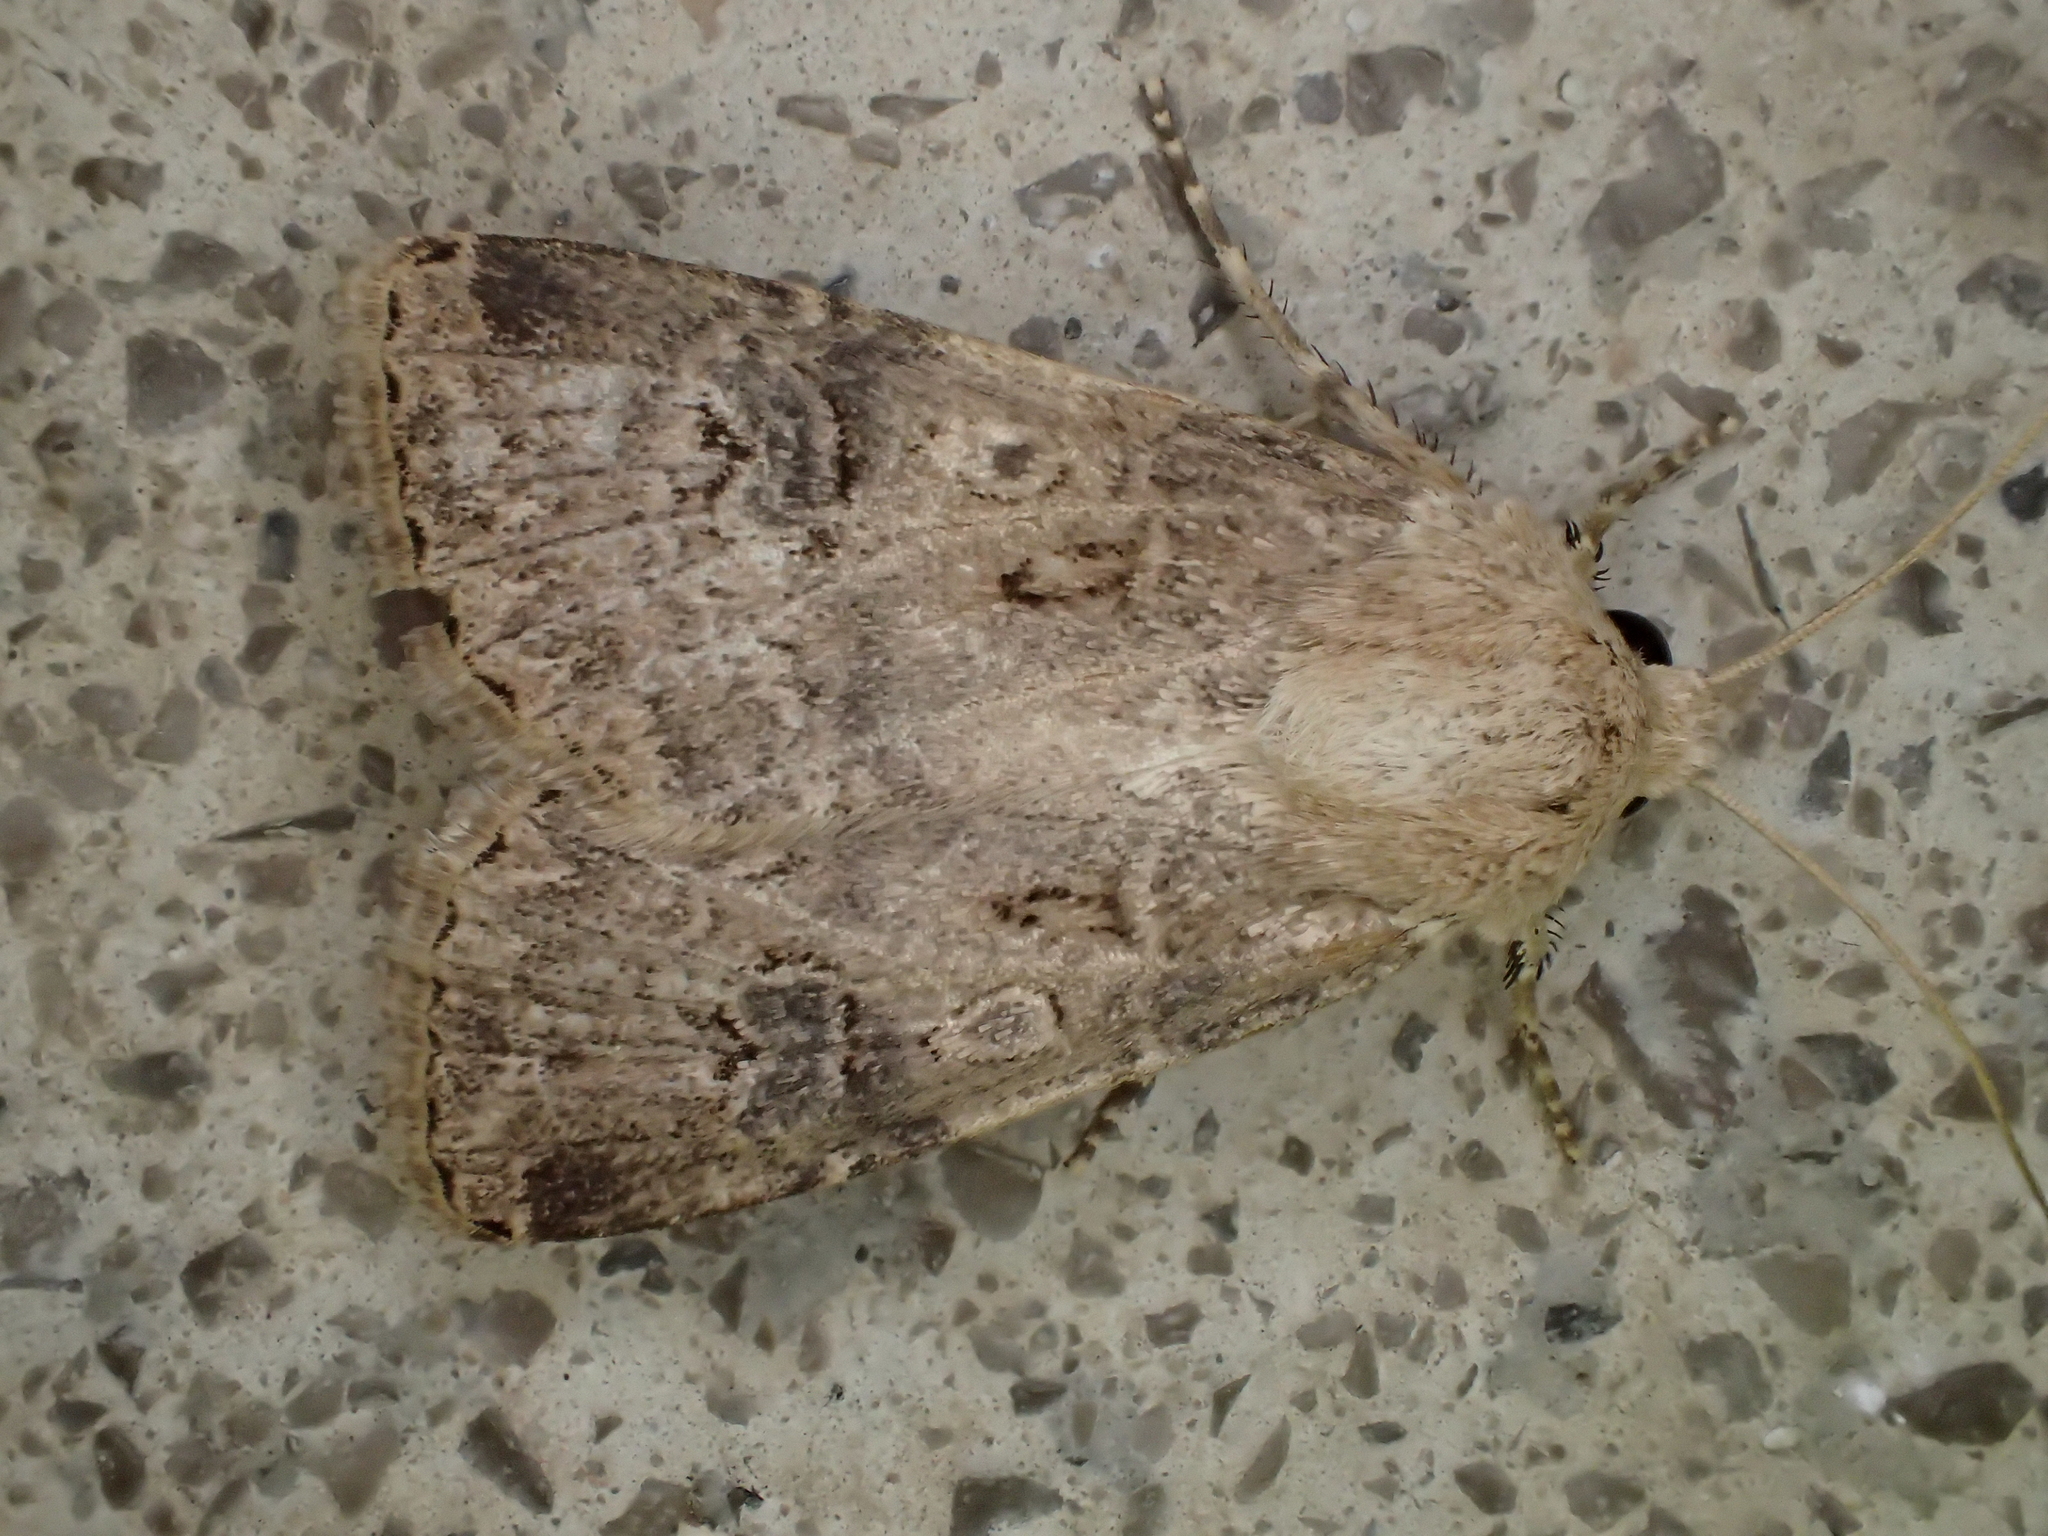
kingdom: Animalia
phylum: Arthropoda
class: Insecta
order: Lepidoptera
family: Noctuidae
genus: Agrotis
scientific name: Agrotis bigramma
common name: Great dart
